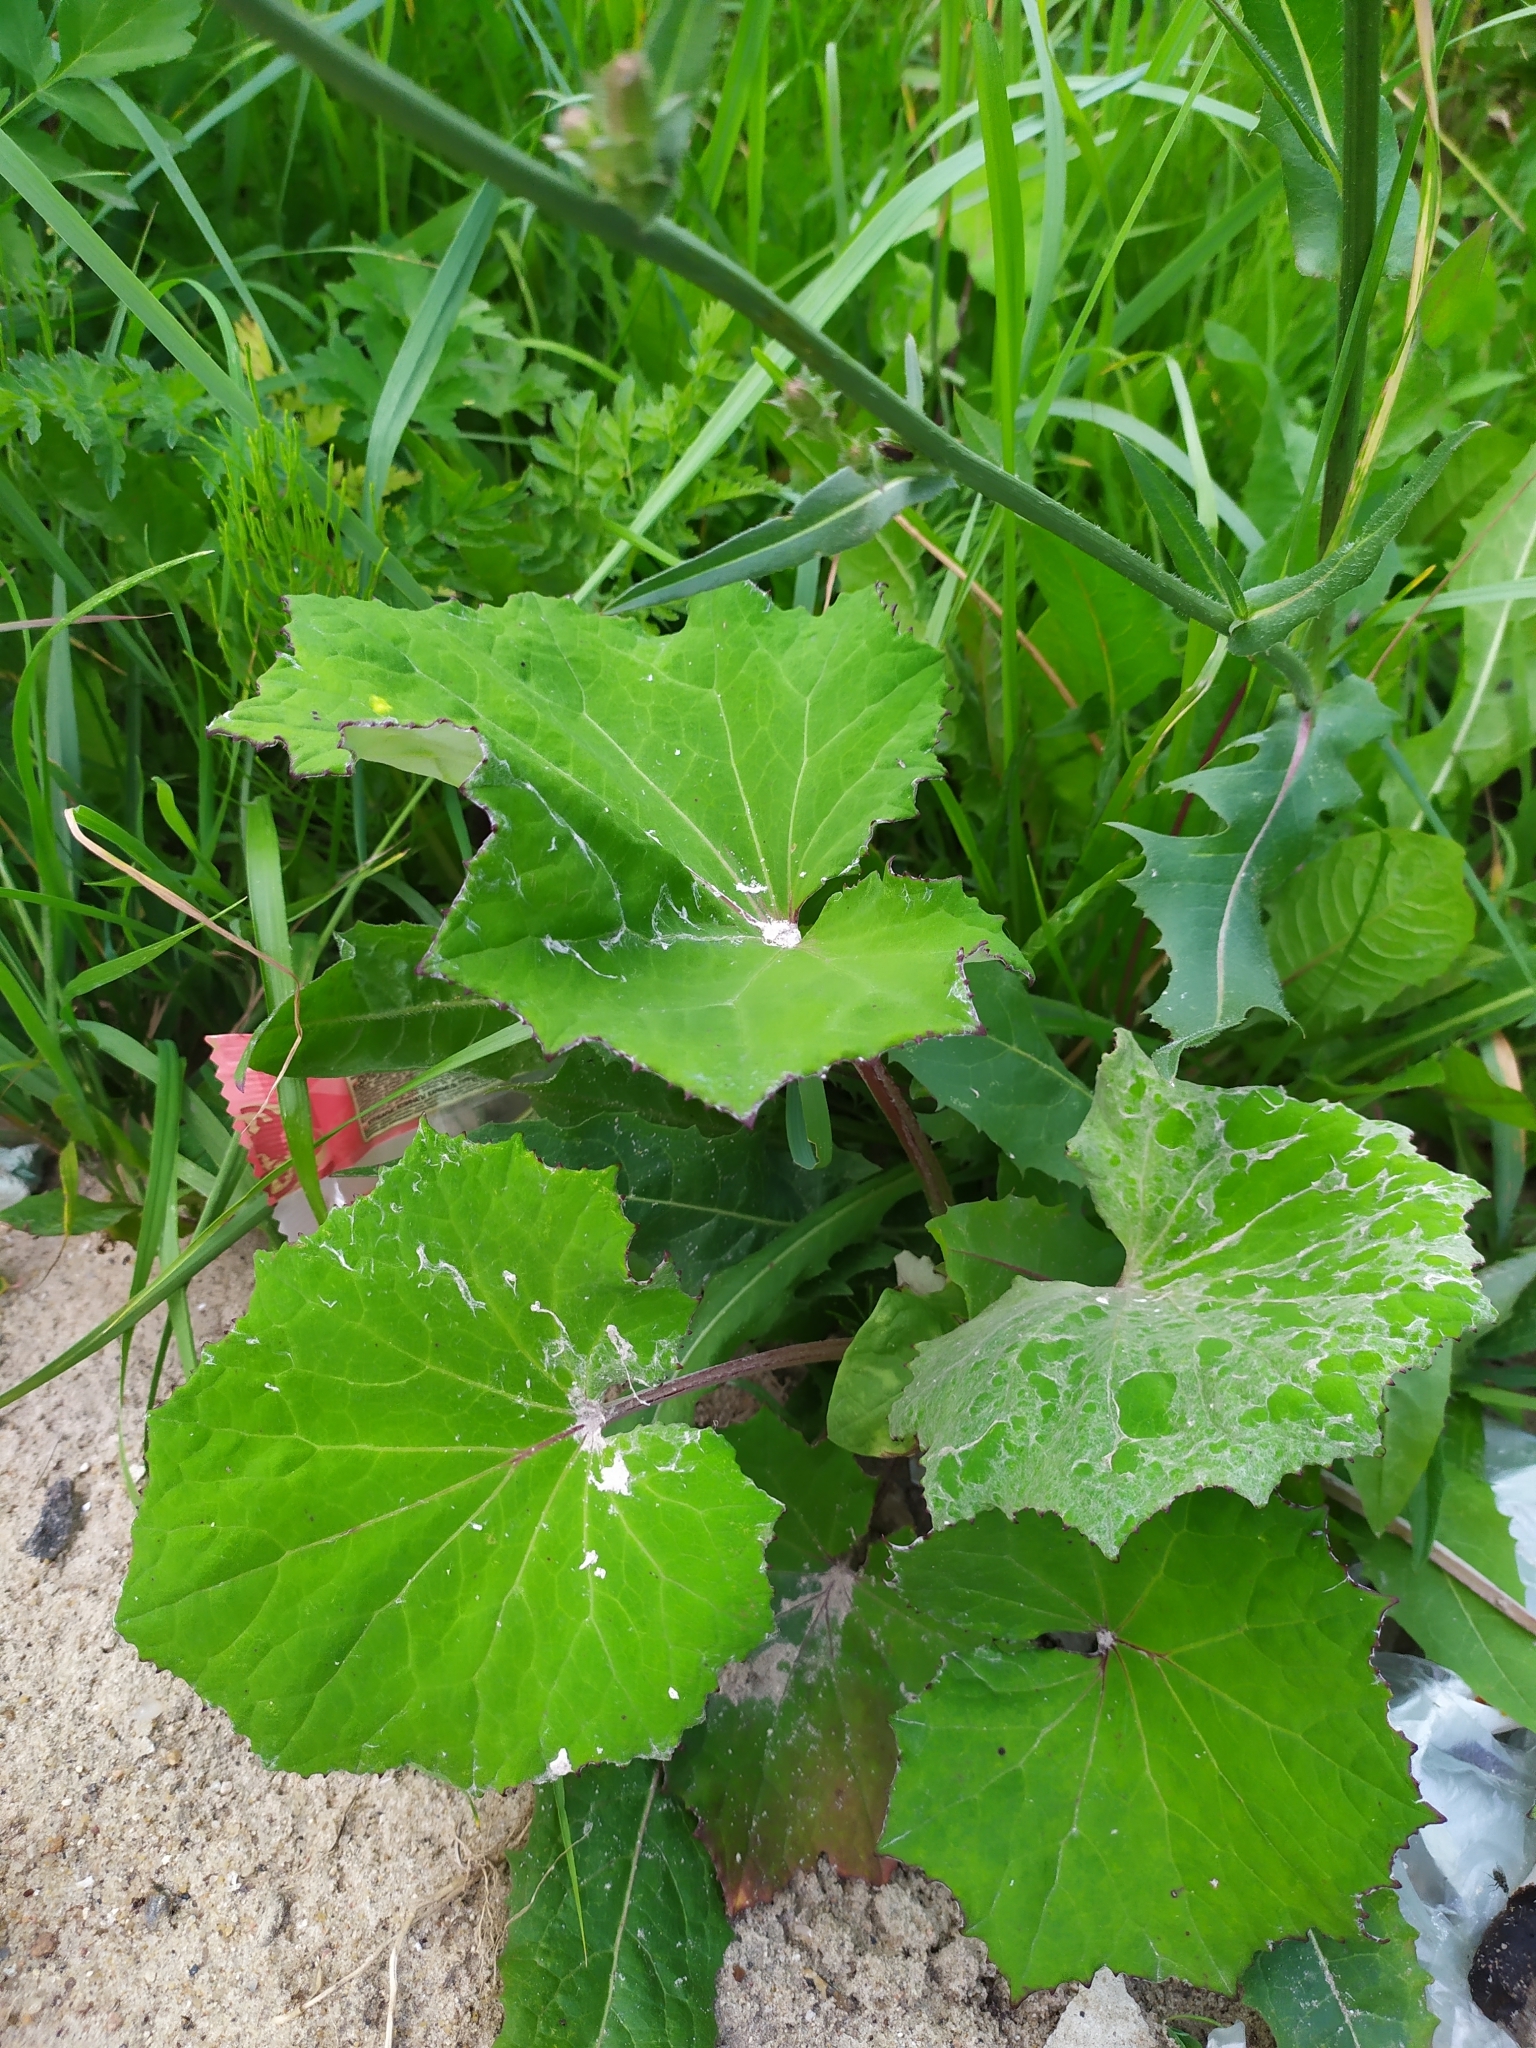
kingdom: Plantae
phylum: Tracheophyta
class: Magnoliopsida
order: Asterales
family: Asteraceae
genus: Tussilago
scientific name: Tussilago farfara
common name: Coltsfoot
